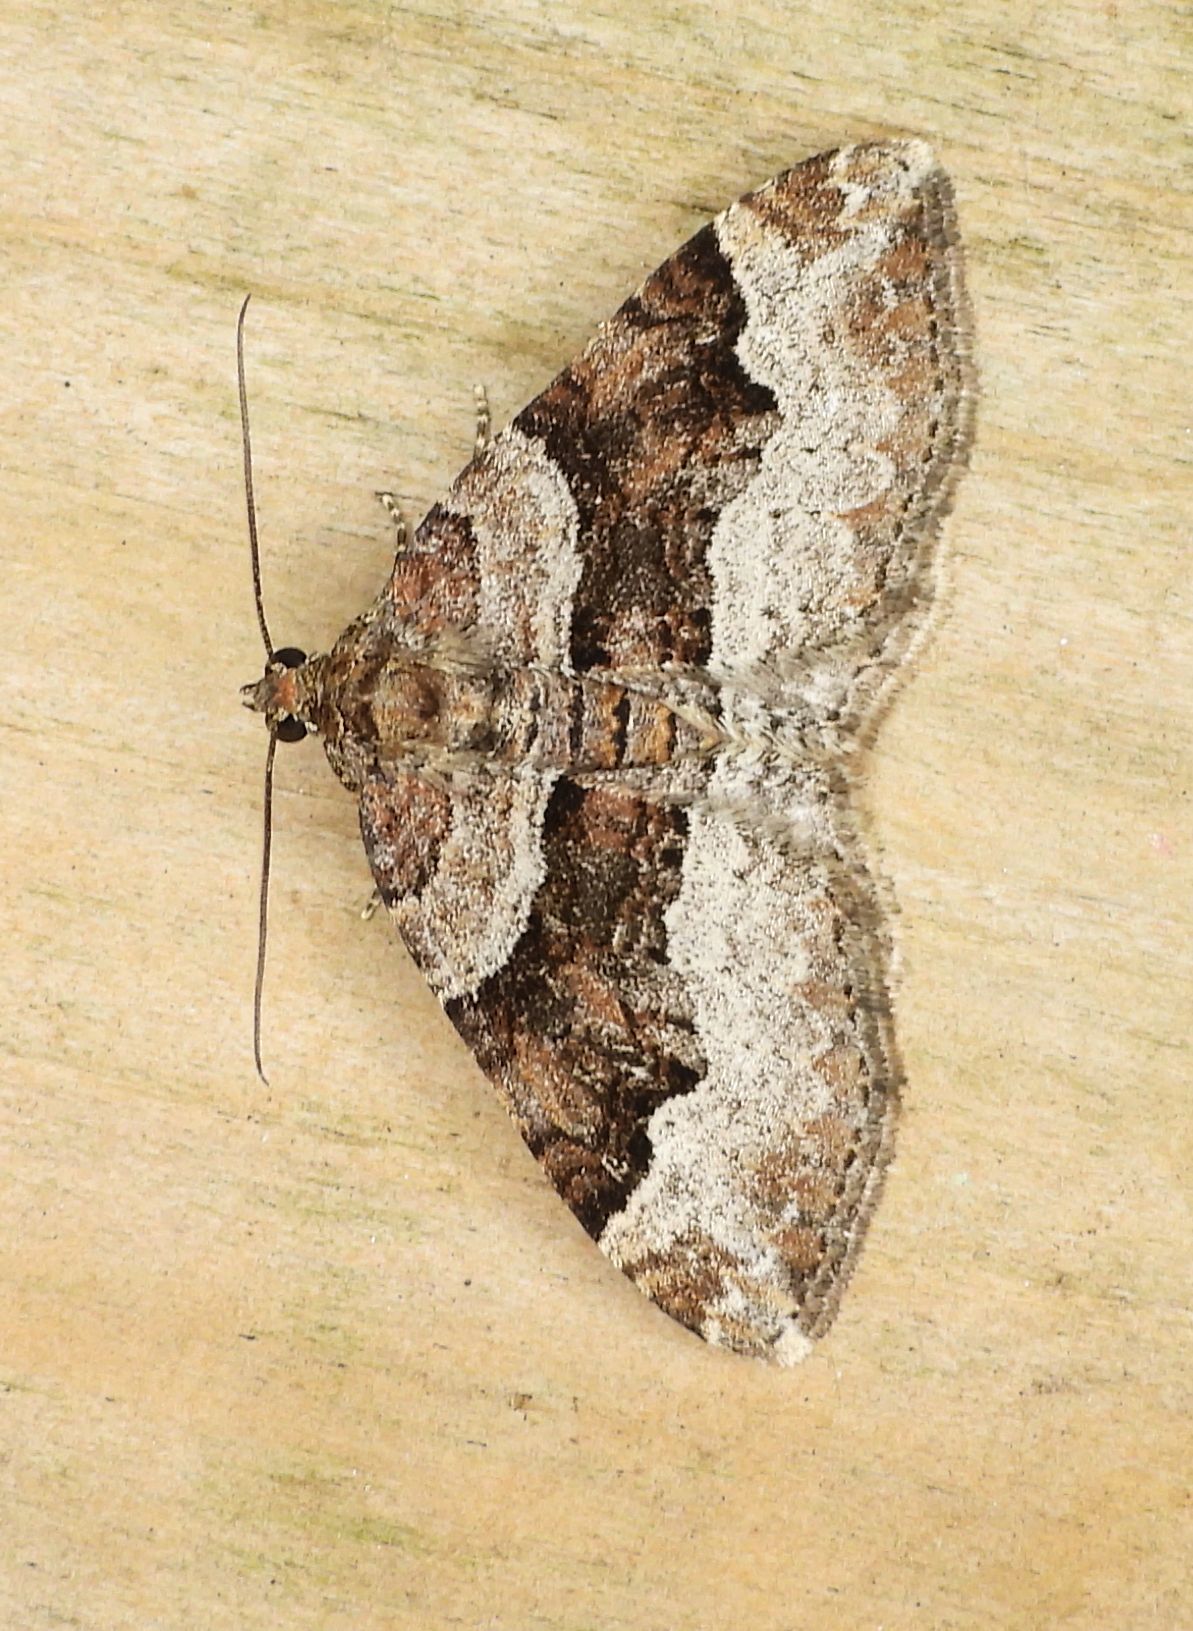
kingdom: Animalia
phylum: Arthropoda
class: Insecta
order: Lepidoptera
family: Geometridae
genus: Xanthorhoe
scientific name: Xanthorhoe lacustrata
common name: Toothed brown carpet
